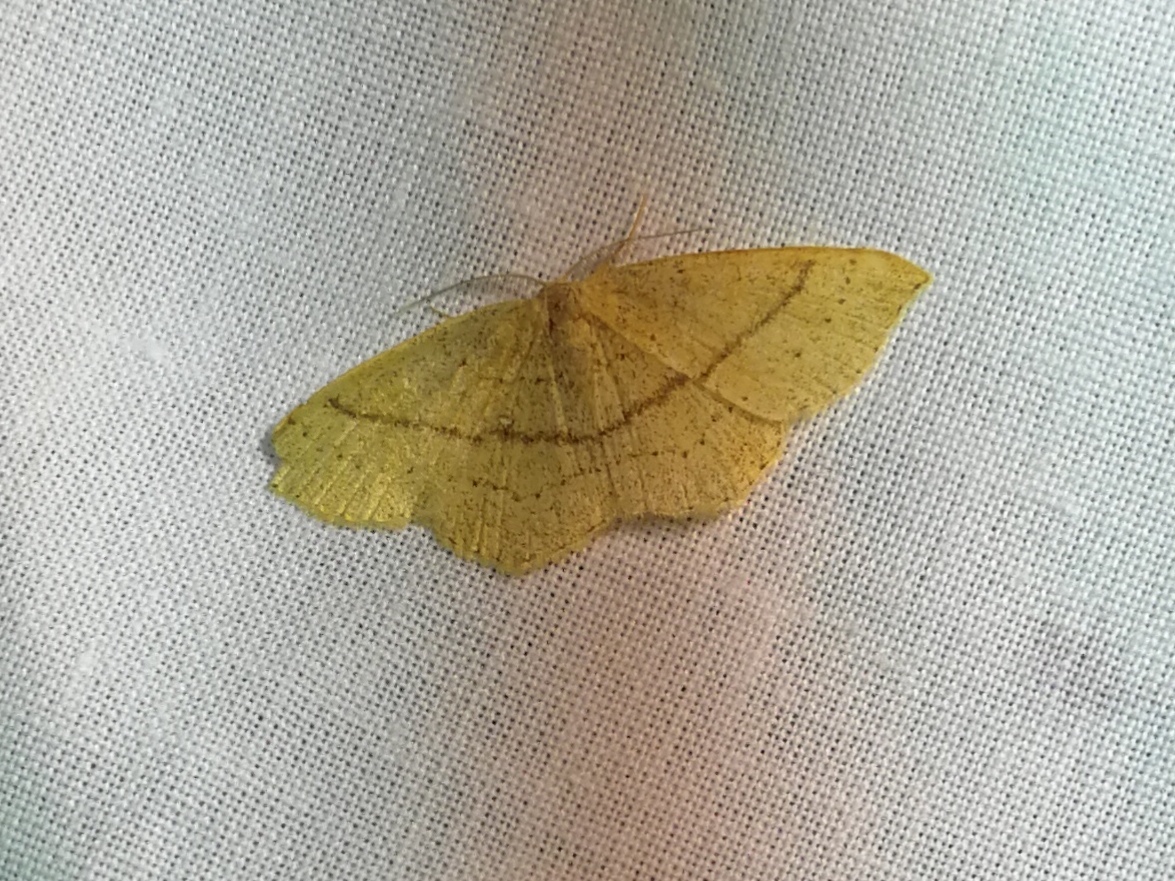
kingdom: Animalia
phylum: Arthropoda
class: Insecta
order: Lepidoptera
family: Geometridae
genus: Cyclophora
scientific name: Cyclophora linearia
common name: Clay triple-lines
